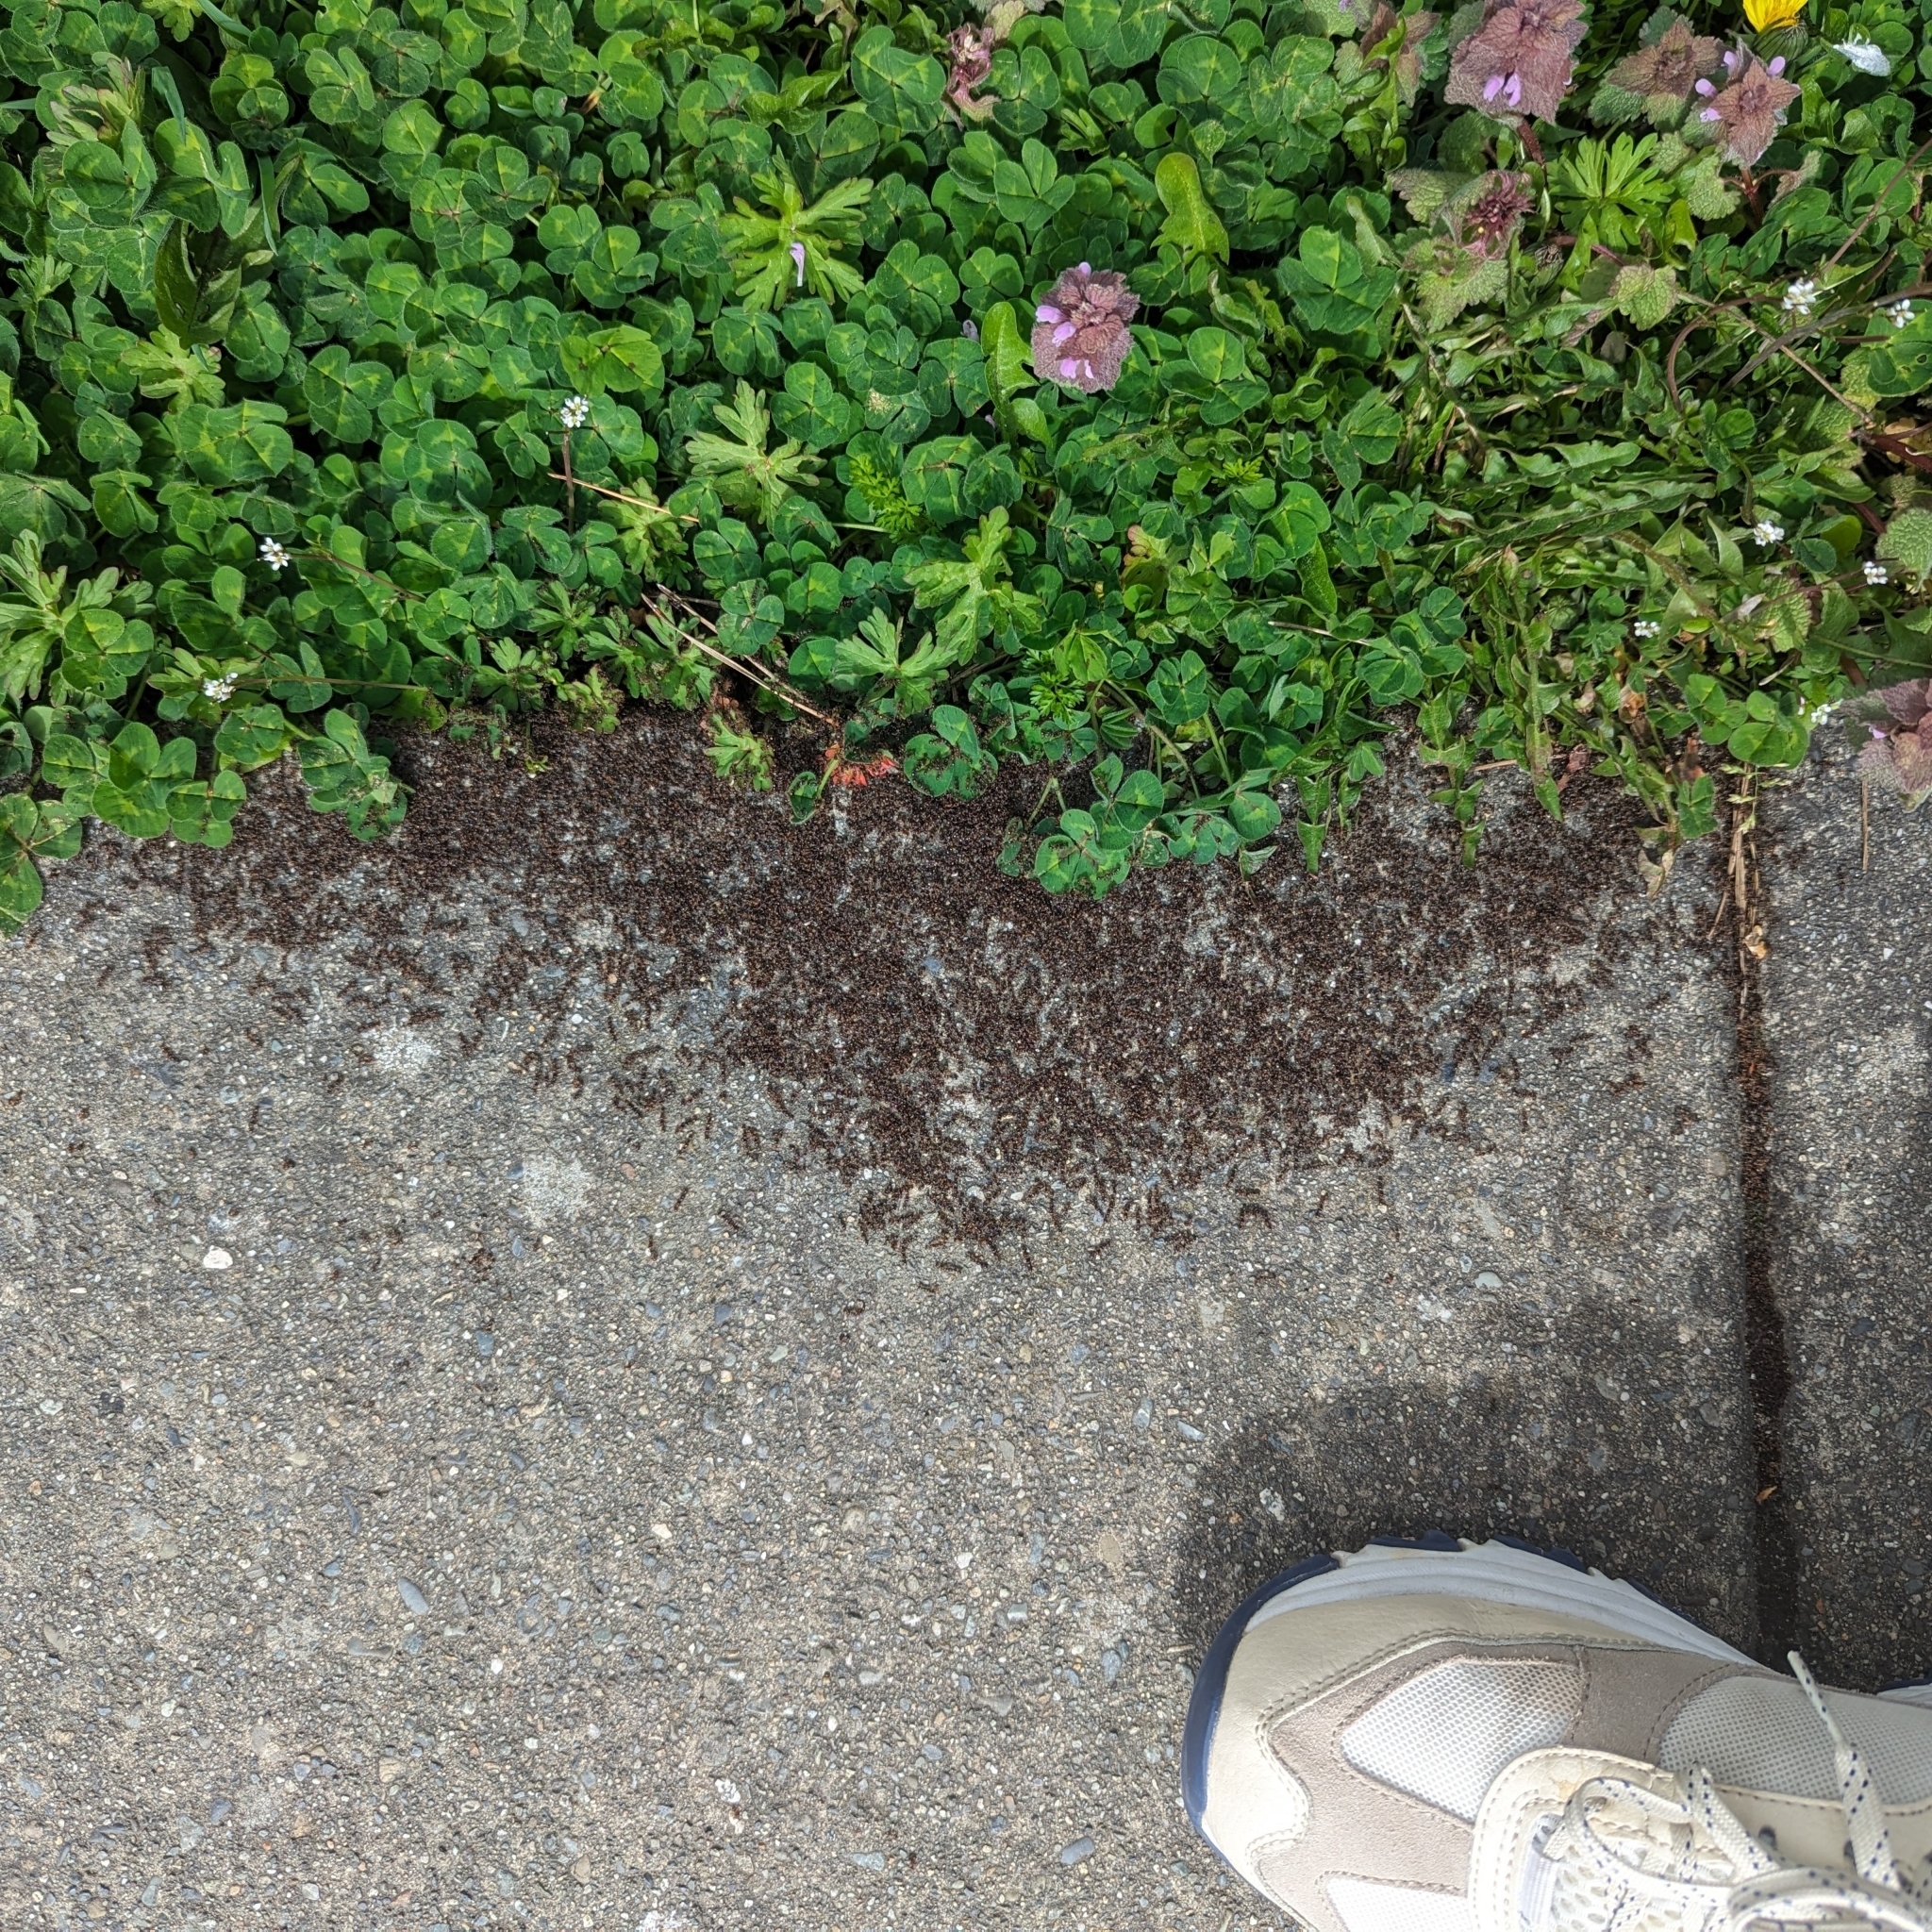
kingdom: Animalia
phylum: Arthropoda
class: Insecta
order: Hymenoptera
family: Formicidae
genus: Tetramorium
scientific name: Tetramorium immigrans
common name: Pavement ant
